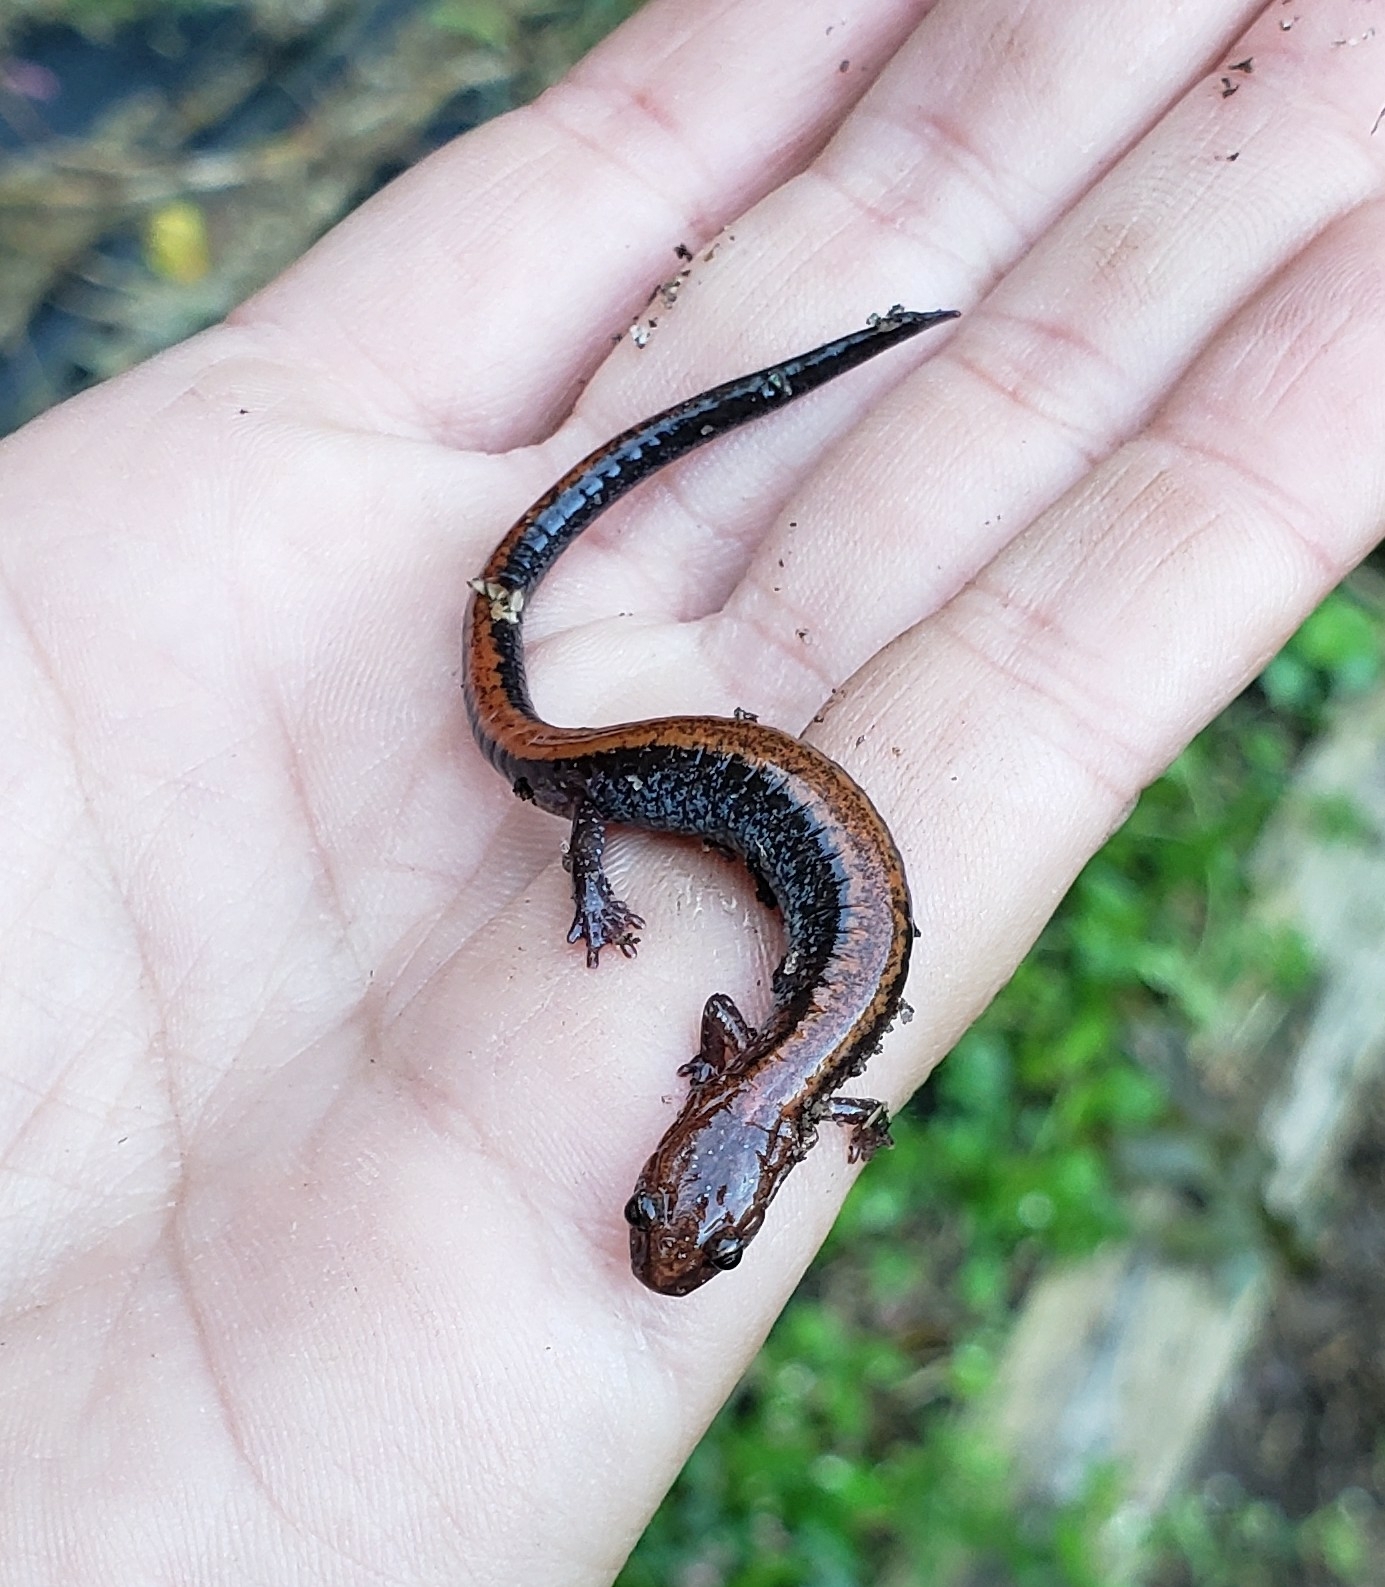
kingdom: Animalia
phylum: Chordata
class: Amphibia
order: Caudata
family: Plethodontidae
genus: Plethodon
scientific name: Plethodon cinereus
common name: Redback salamander
